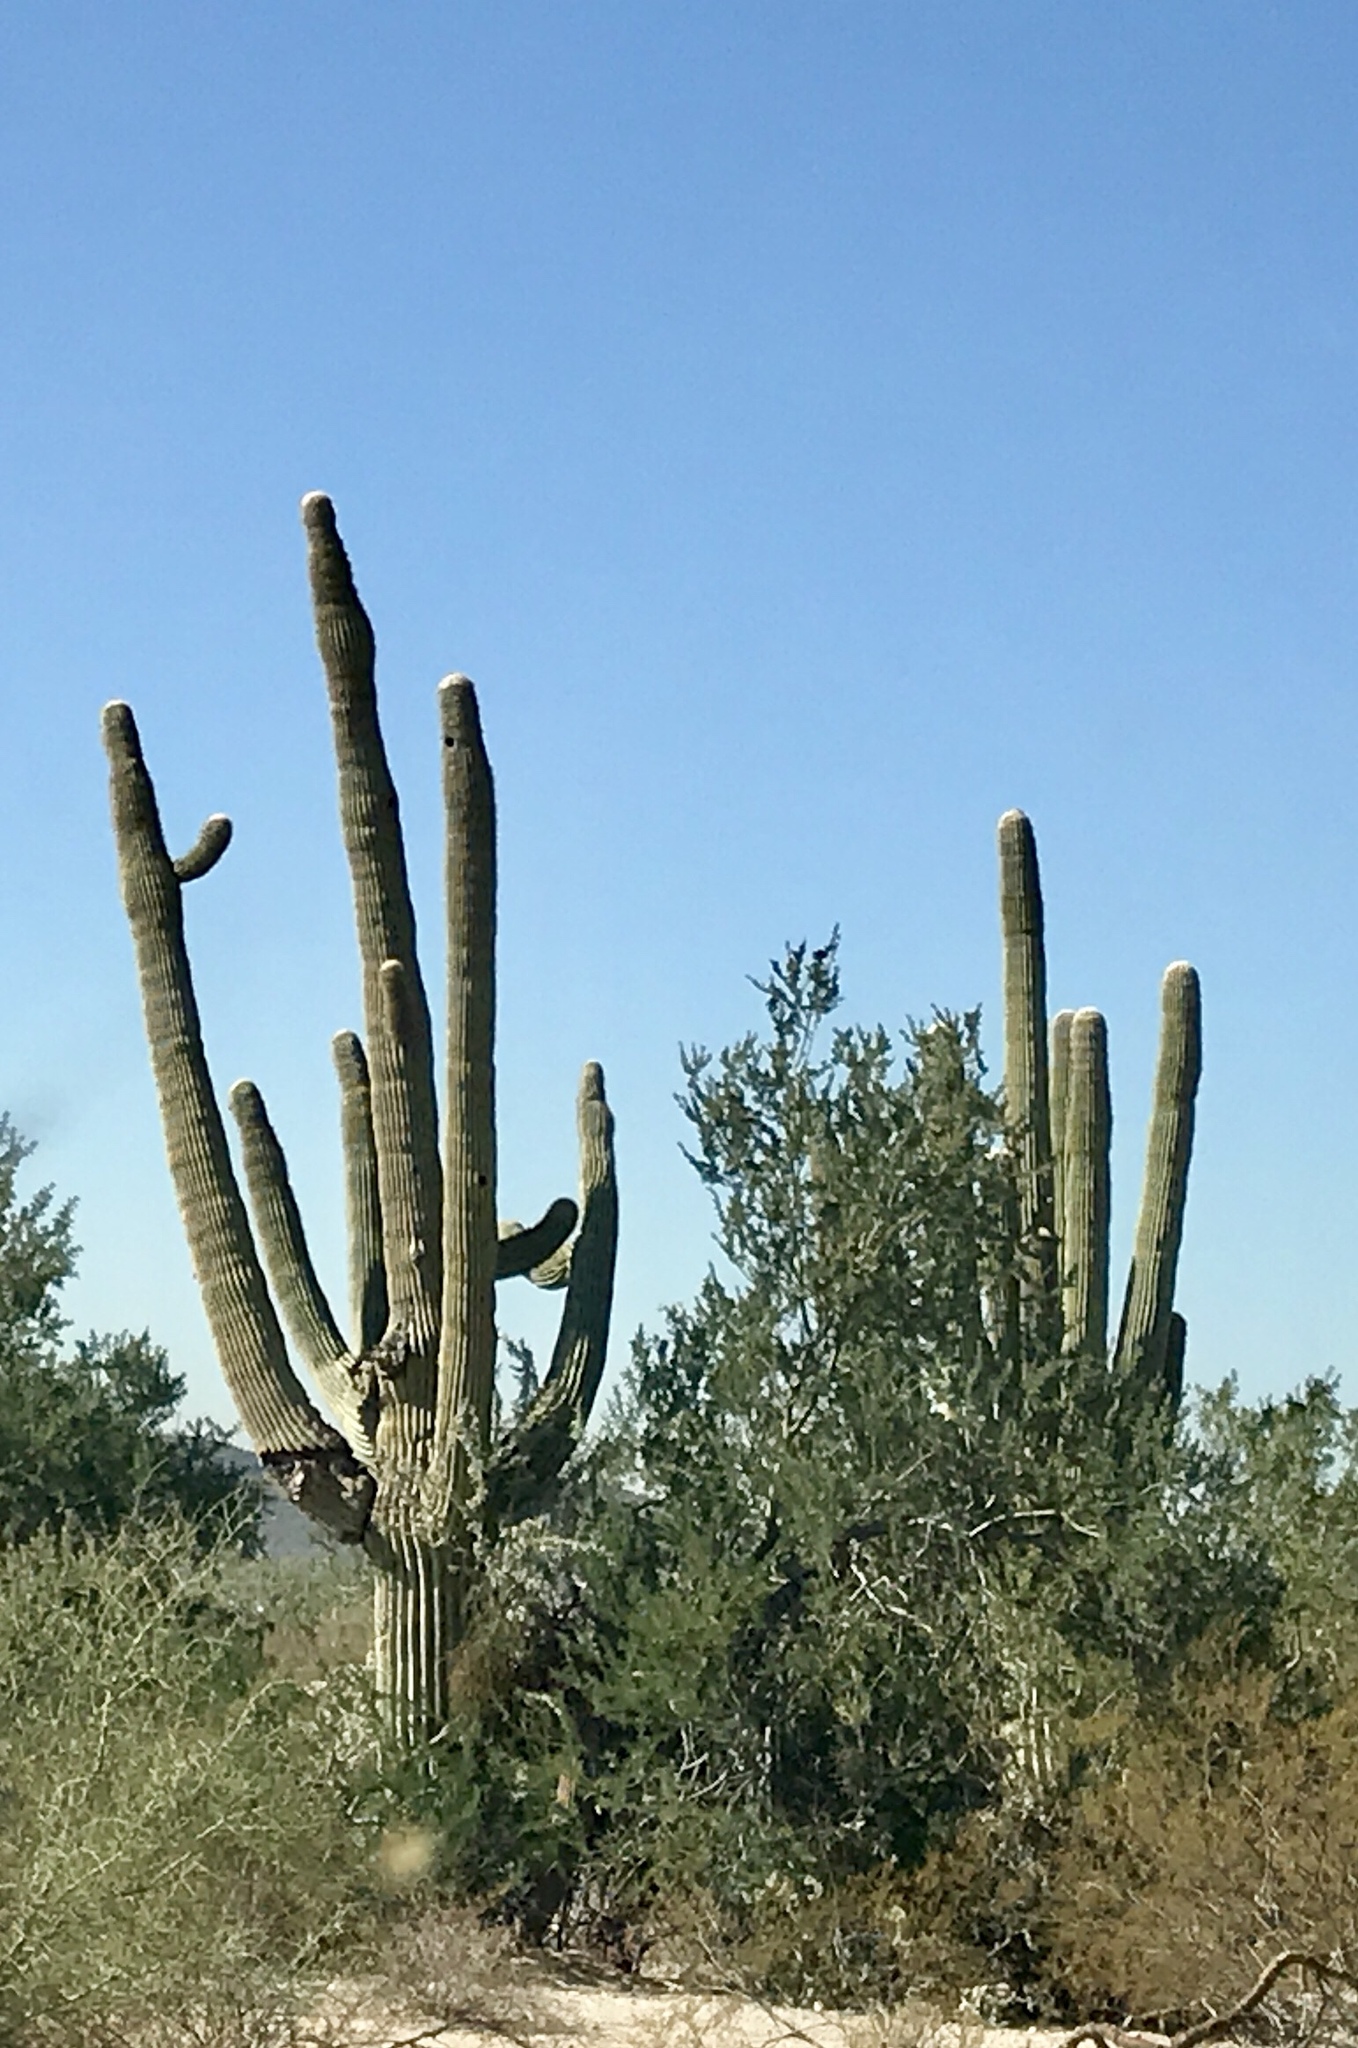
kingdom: Plantae
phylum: Tracheophyta
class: Magnoliopsida
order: Caryophyllales
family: Cactaceae
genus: Carnegiea
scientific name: Carnegiea gigantea
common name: Saguaro
